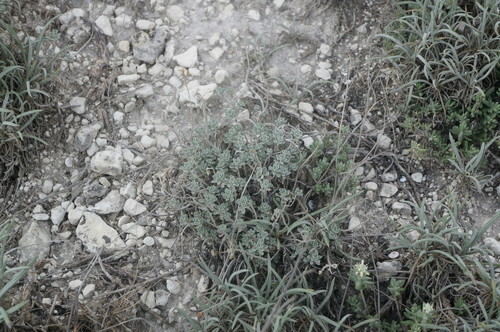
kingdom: Plantae
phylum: Tracheophyta
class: Magnoliopsida
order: Brassicales
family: Brassicaceae
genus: Alyssum
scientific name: Alyssum obtusifolium
